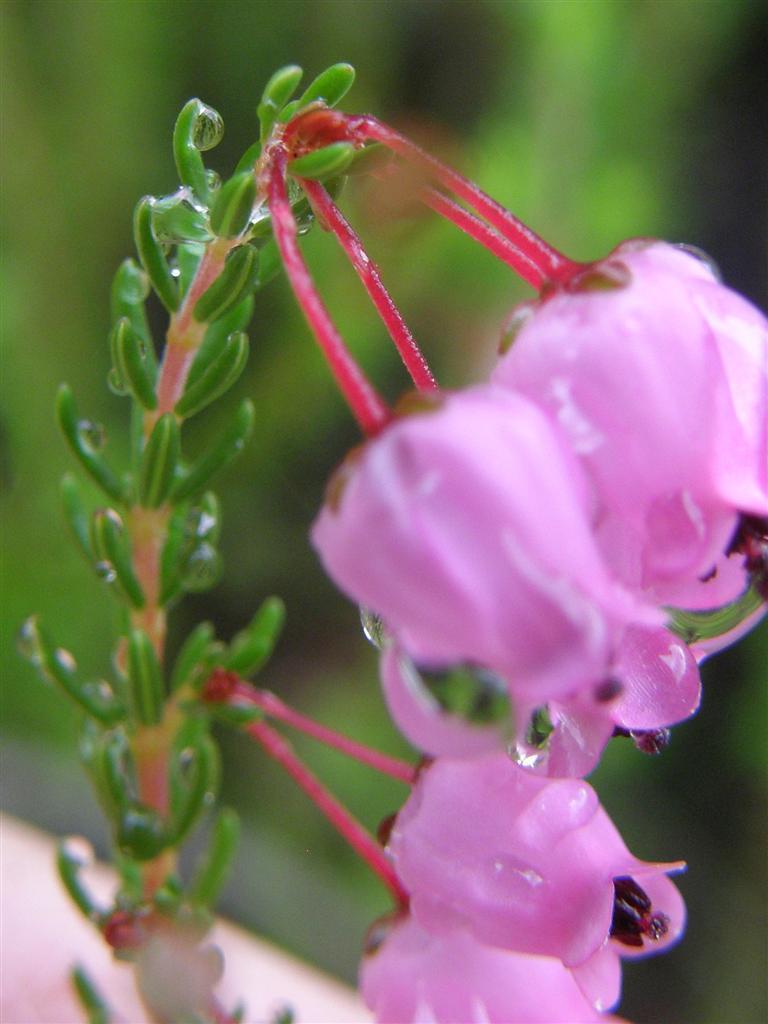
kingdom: Plantae
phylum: Tracheophyta
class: Magnoliopsida
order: Ericales
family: Ericaceae
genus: Erica
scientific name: Erica lateralis
